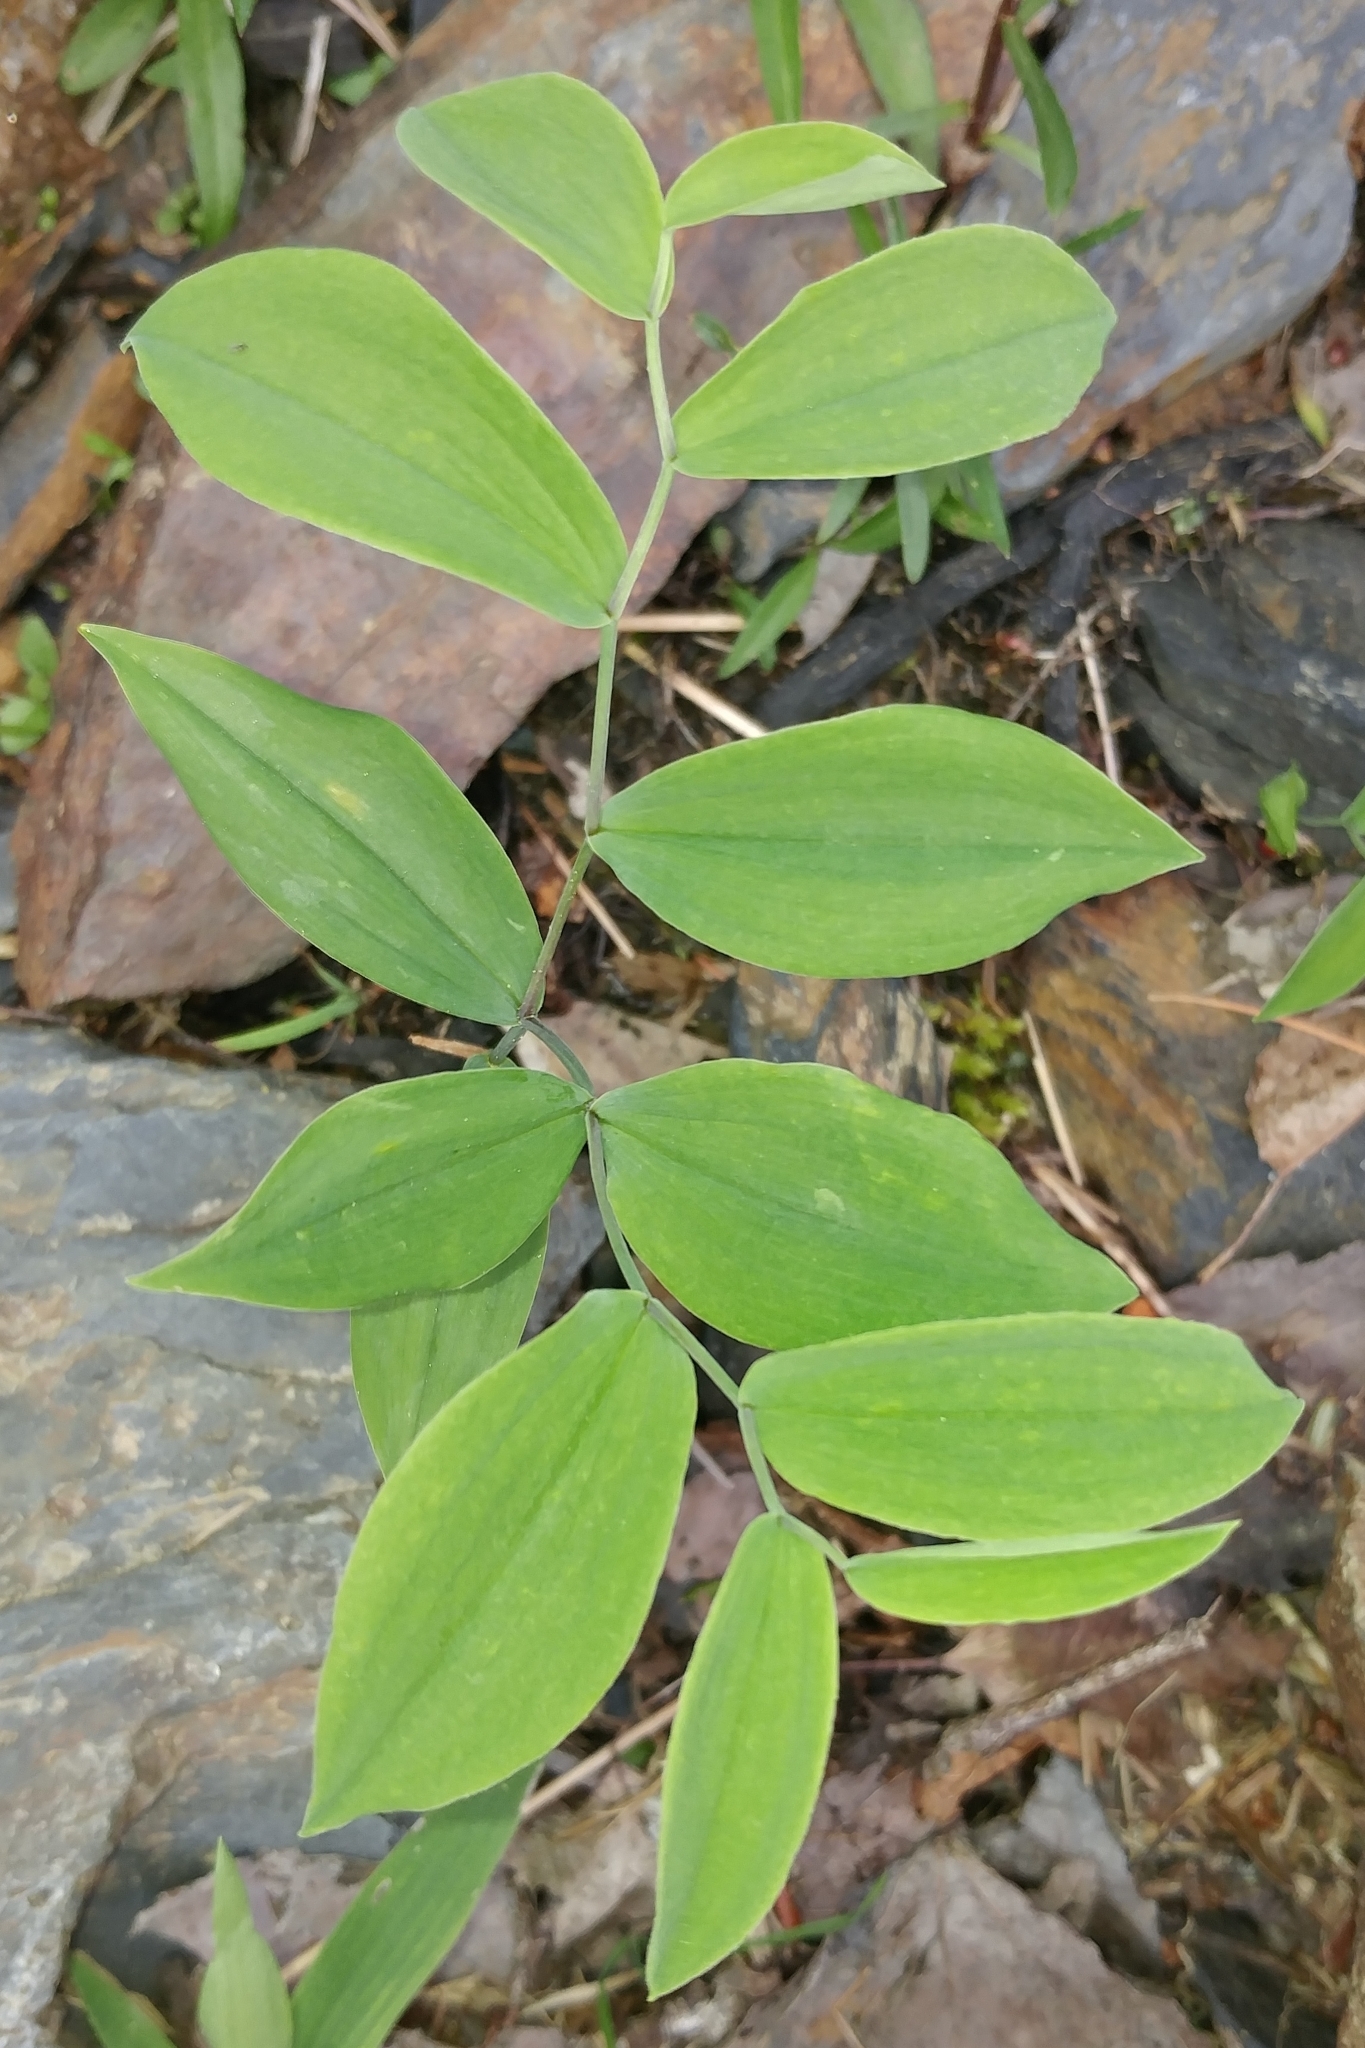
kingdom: Plantae
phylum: Tracheophyta
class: Liliopsida
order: Liliales
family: Colchicaceae
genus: Uvularia
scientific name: Uvularia sessilifolia
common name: Straw-lily
